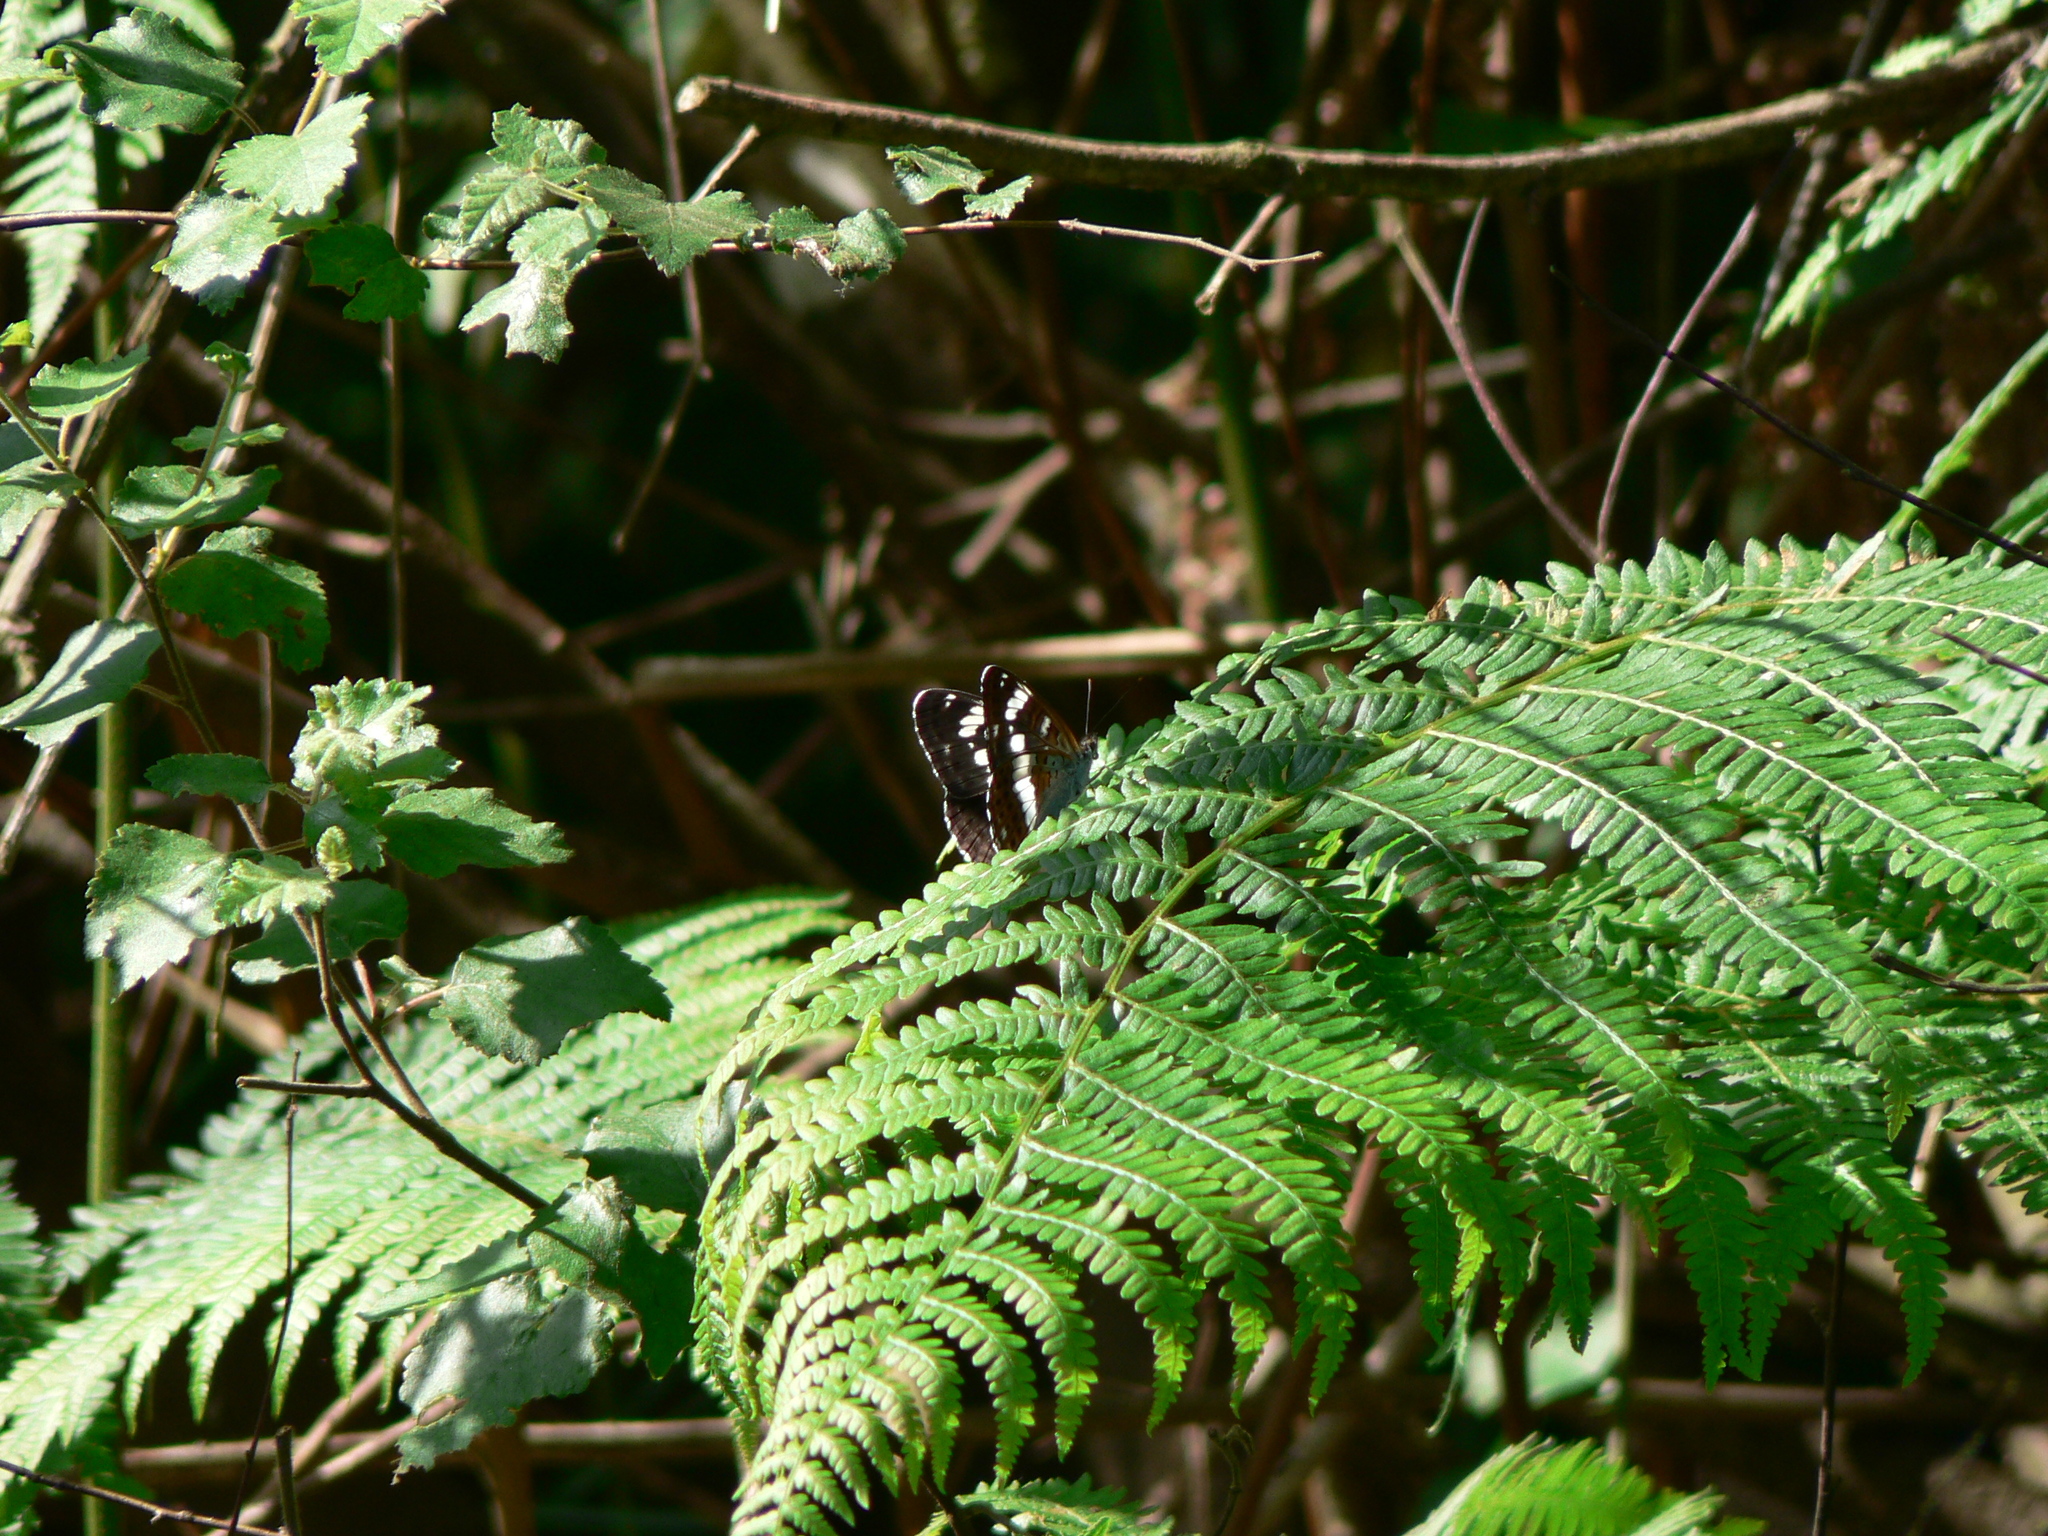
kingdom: Animalia
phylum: Arthropoda
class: Insecta
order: Lepidoptera
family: Nymphalidae
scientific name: Nymphalidae
